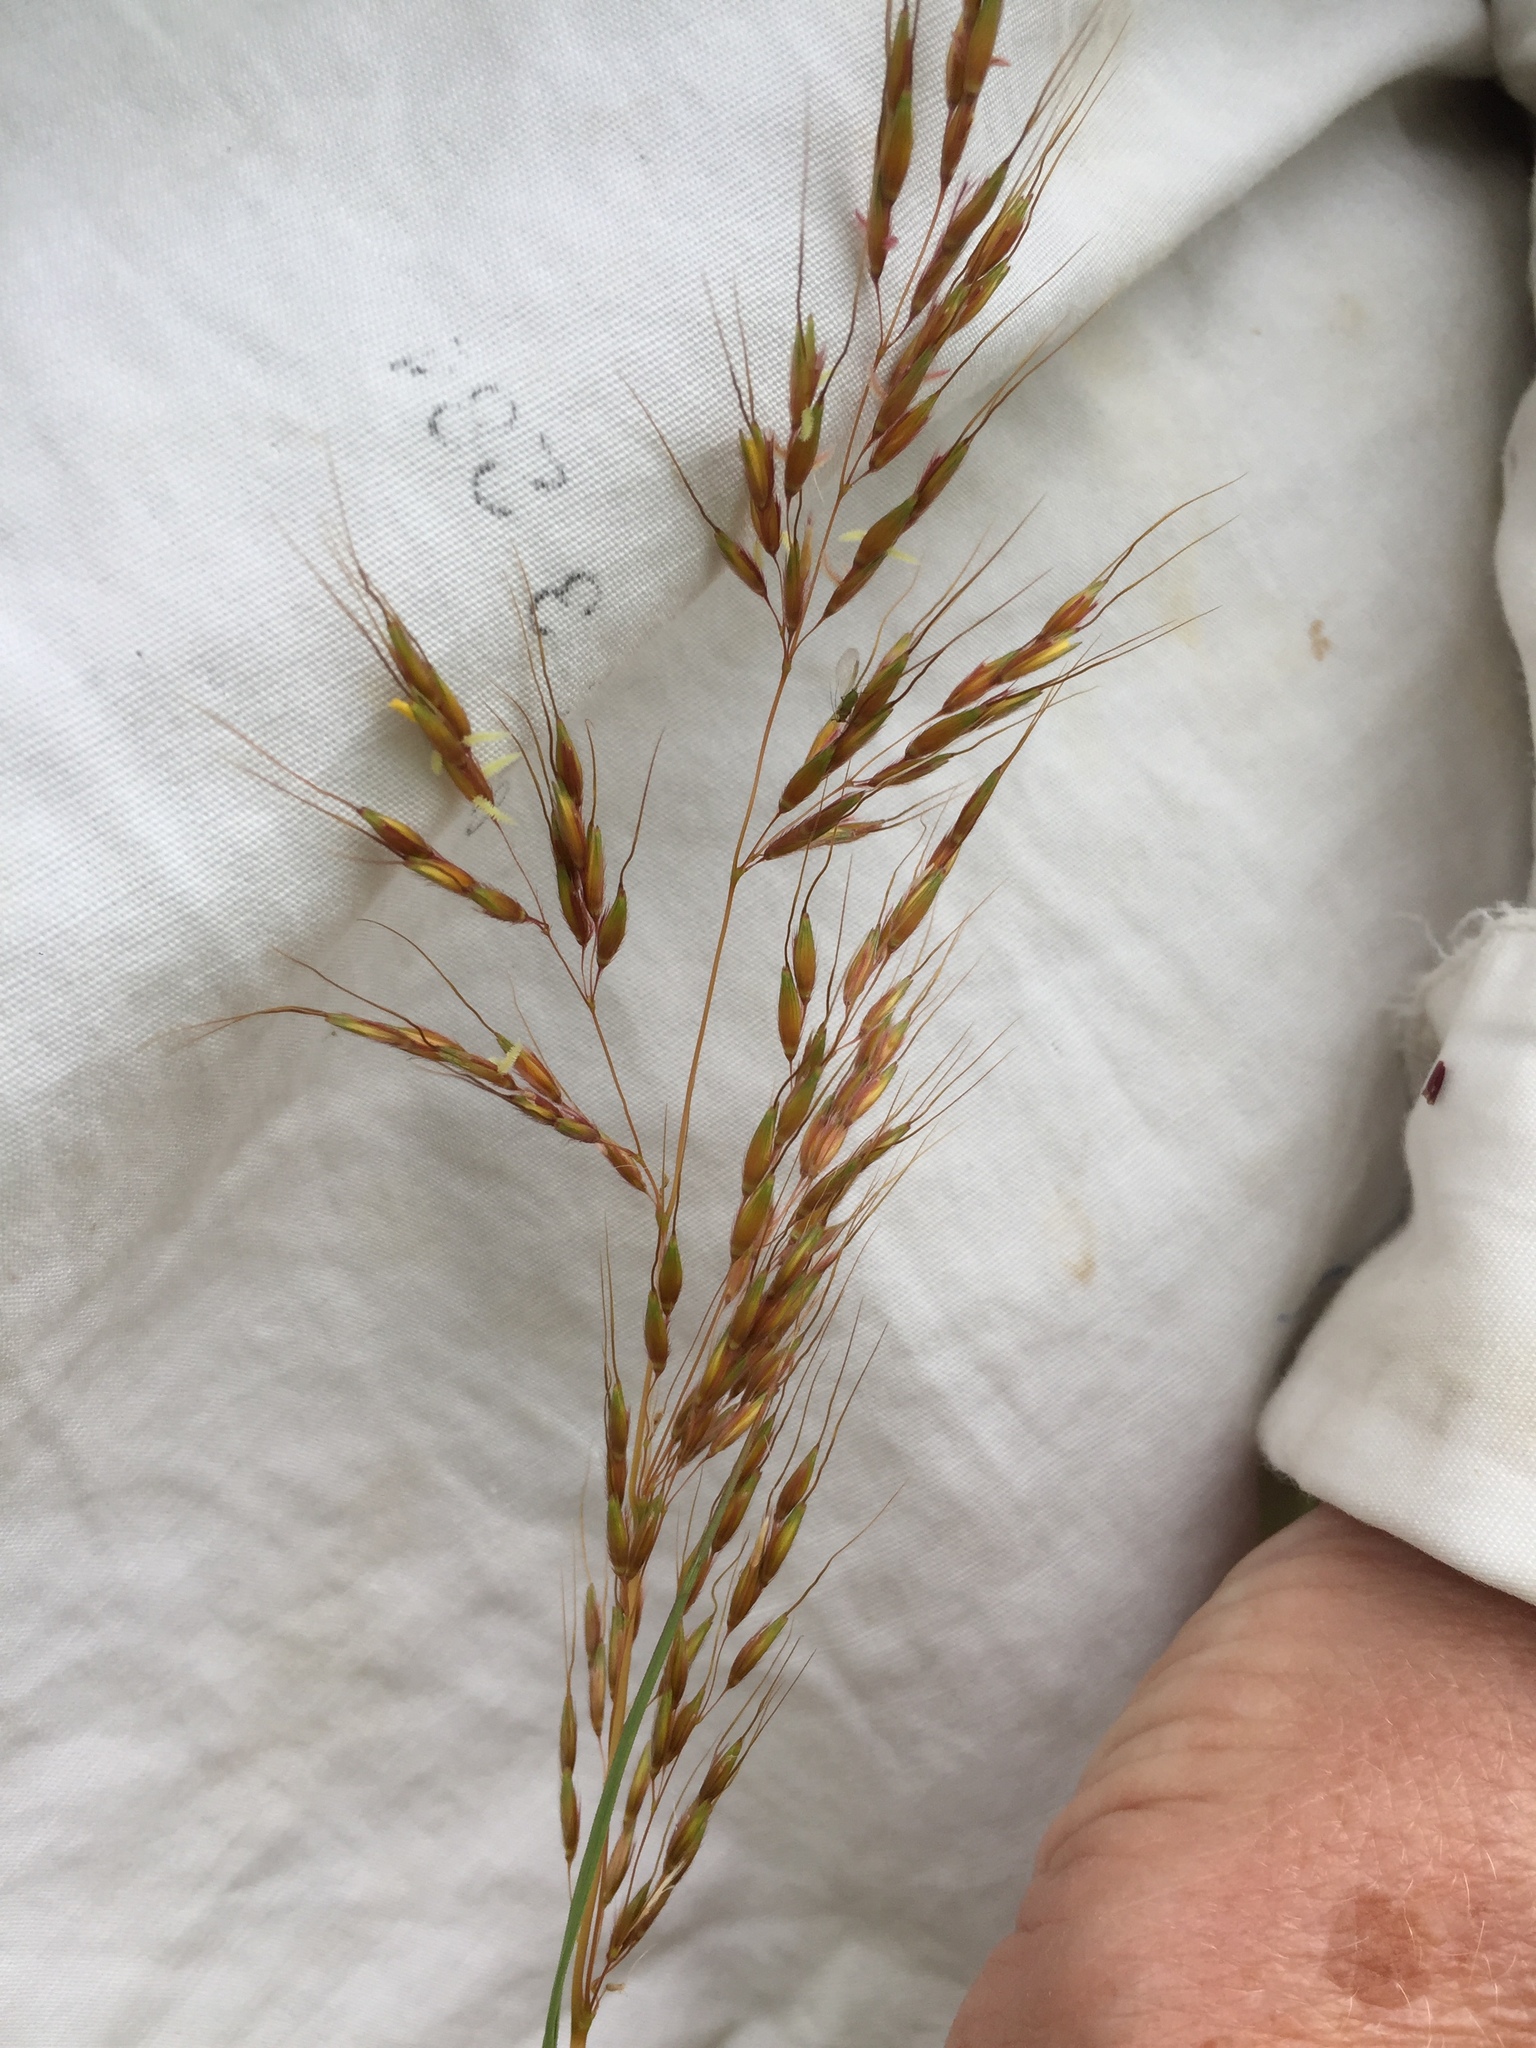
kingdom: Plantae
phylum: Tracheophyta
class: Liliopsida
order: Poales
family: Poaceae
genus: Sorghastrum
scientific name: Sorghastrum nutans
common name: Indian grass
